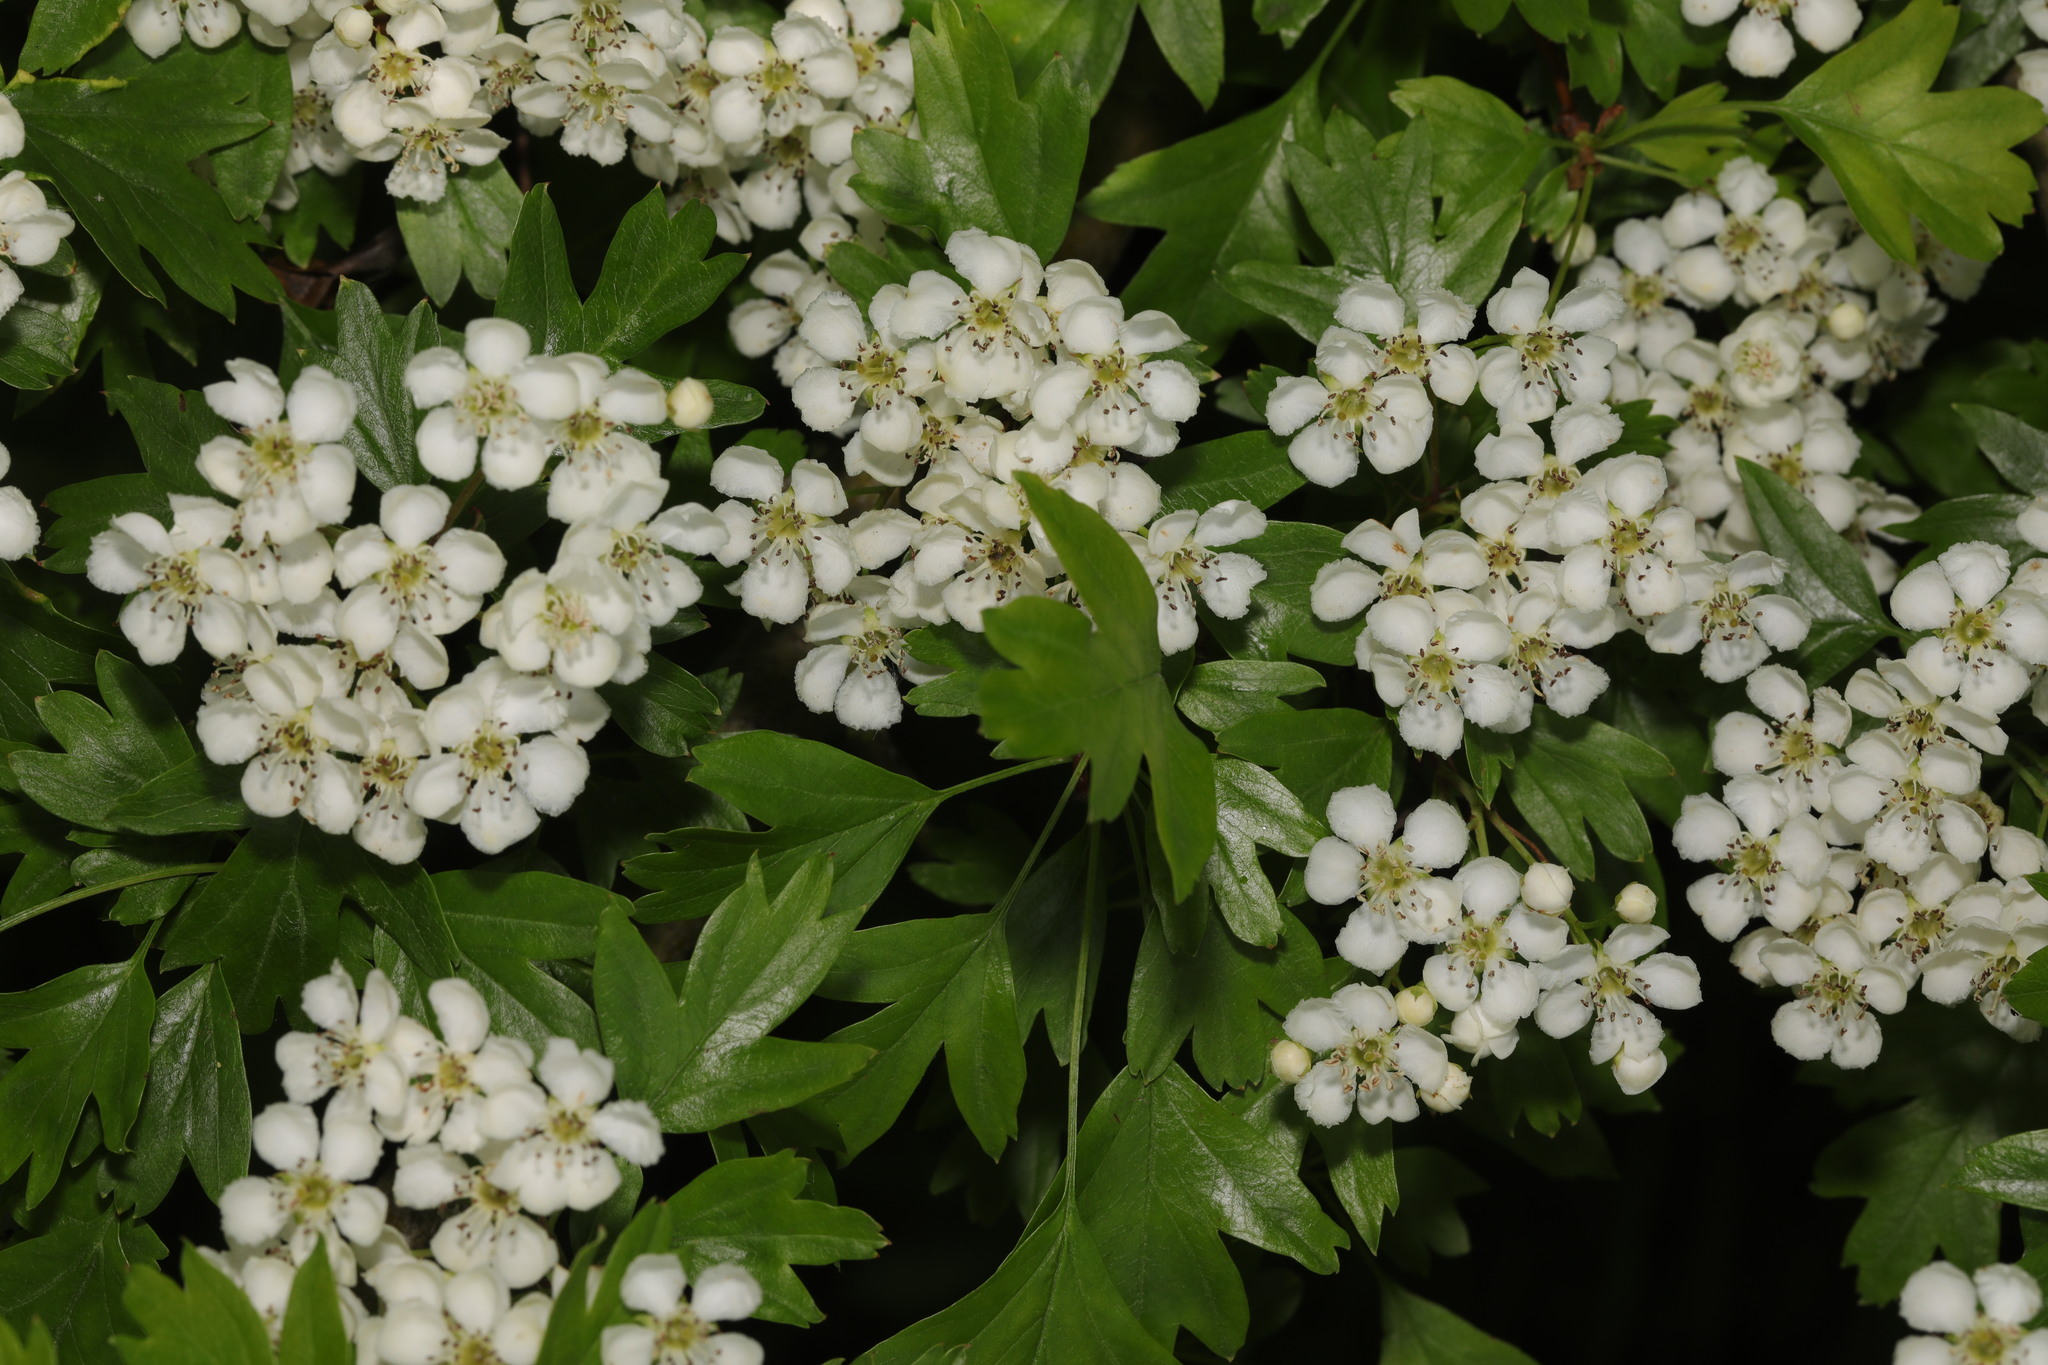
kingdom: Plantae
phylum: Tracheophyta
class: Magnoliopsida
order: Rosales
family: Rosaceae
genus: Crataegus
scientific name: Crataegus monogyna
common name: Hawthorn
